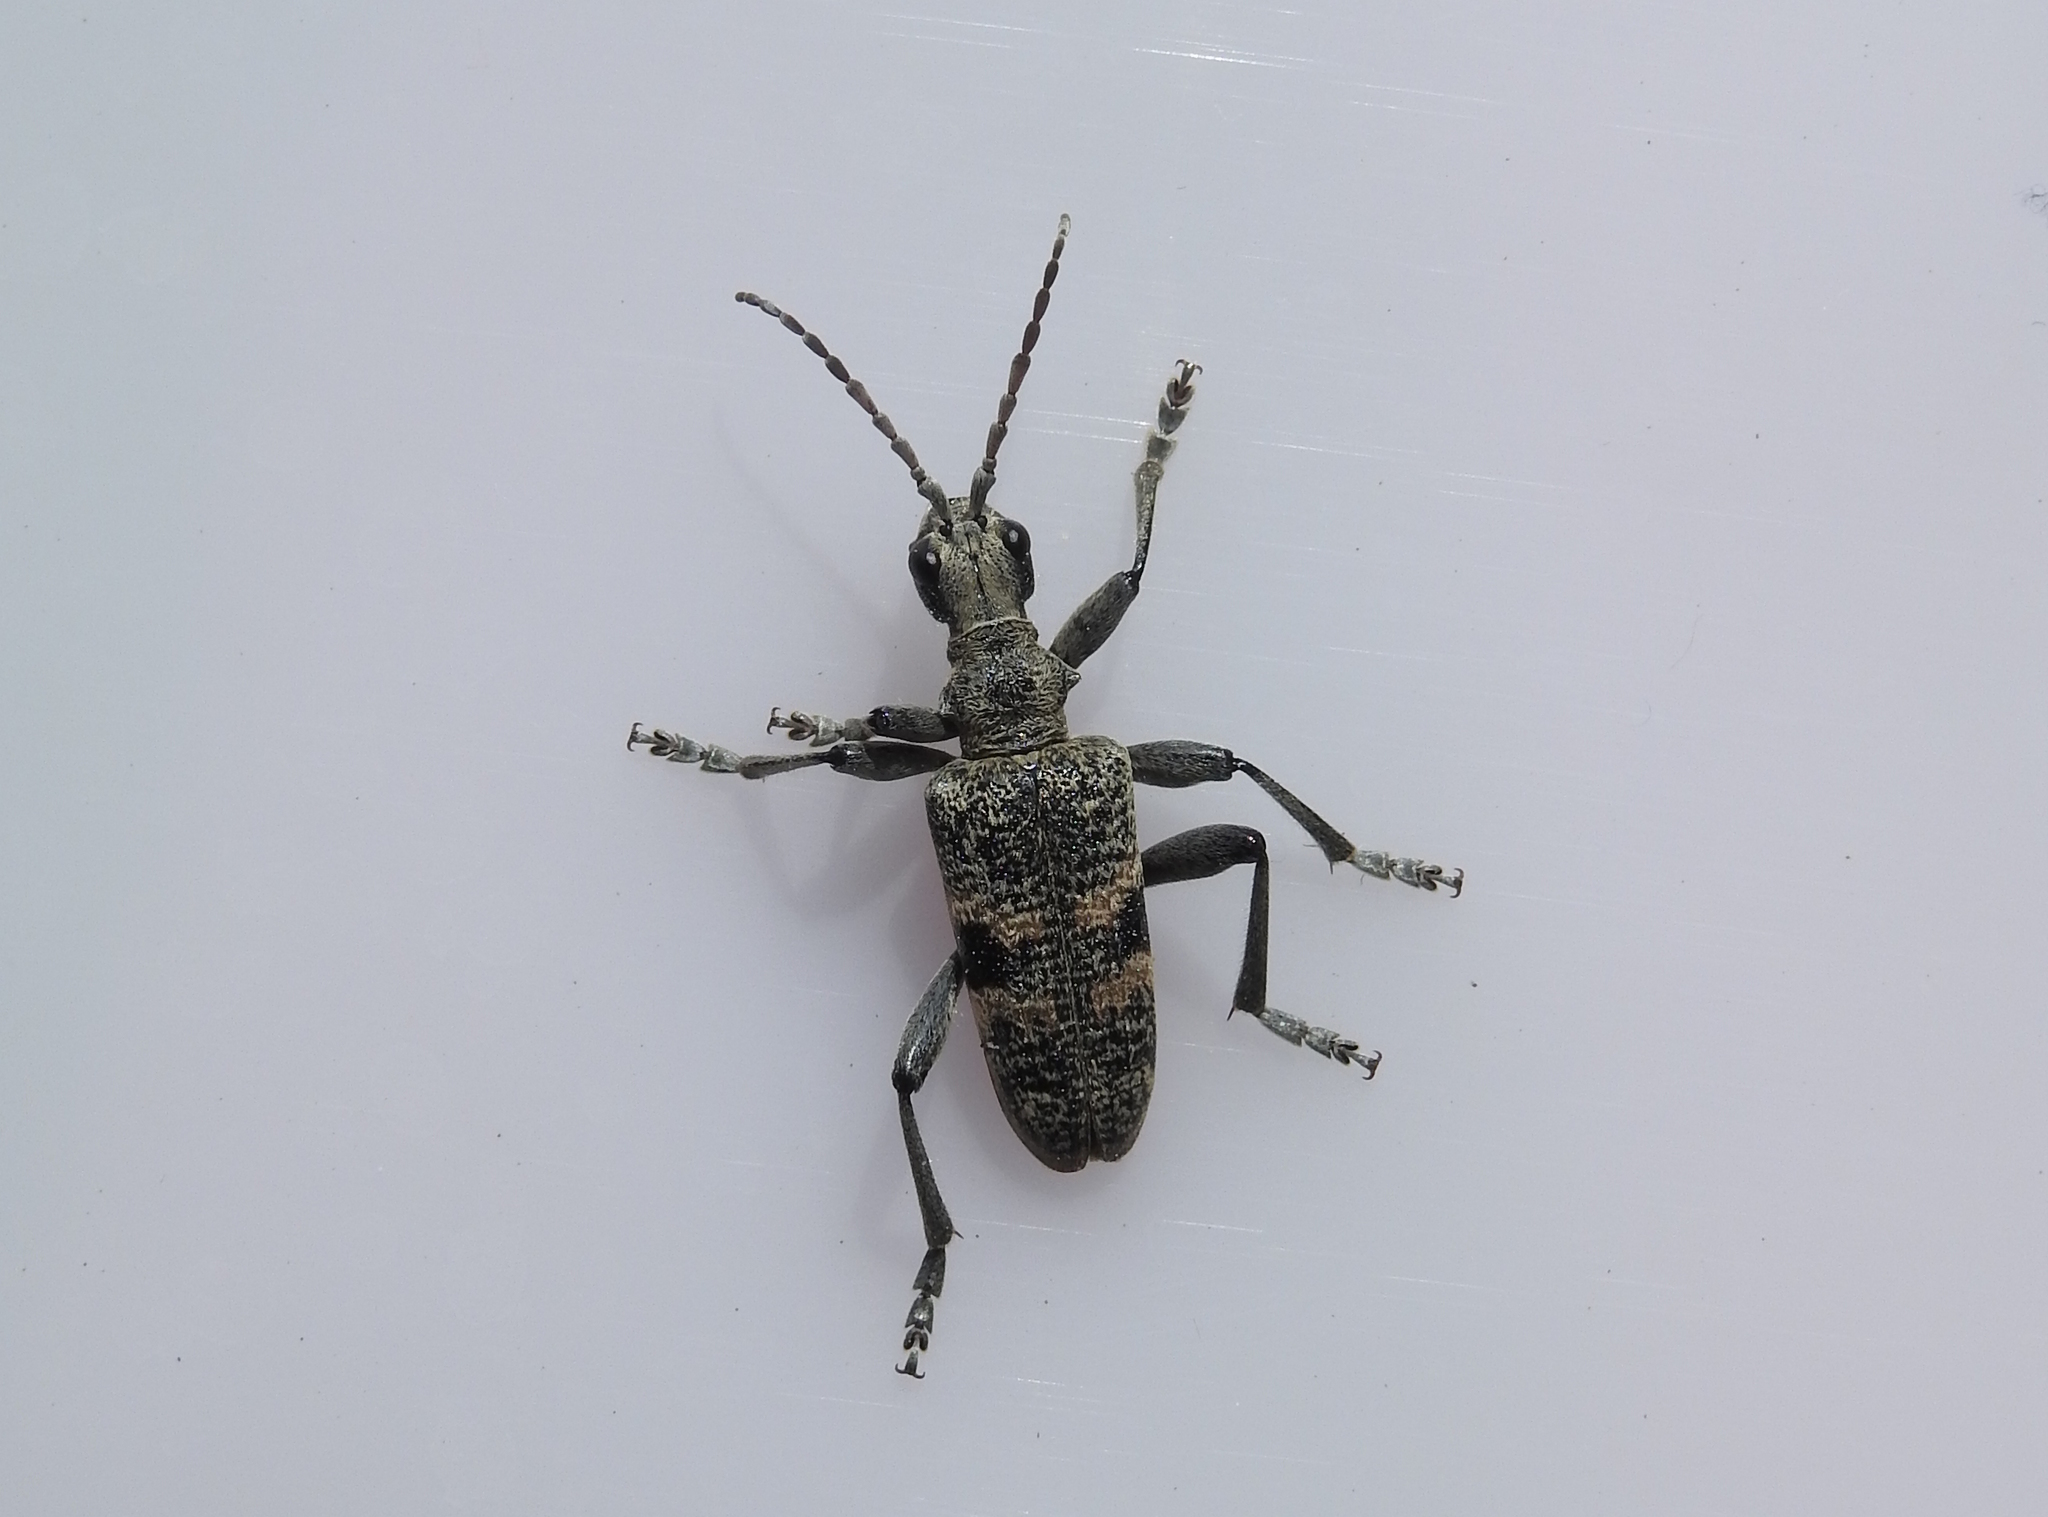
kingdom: Animalia
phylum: Arthropoda
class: Insecta
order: Coleoptera
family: Cerambycidae
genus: Rhagium
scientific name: Rhagium mordax
